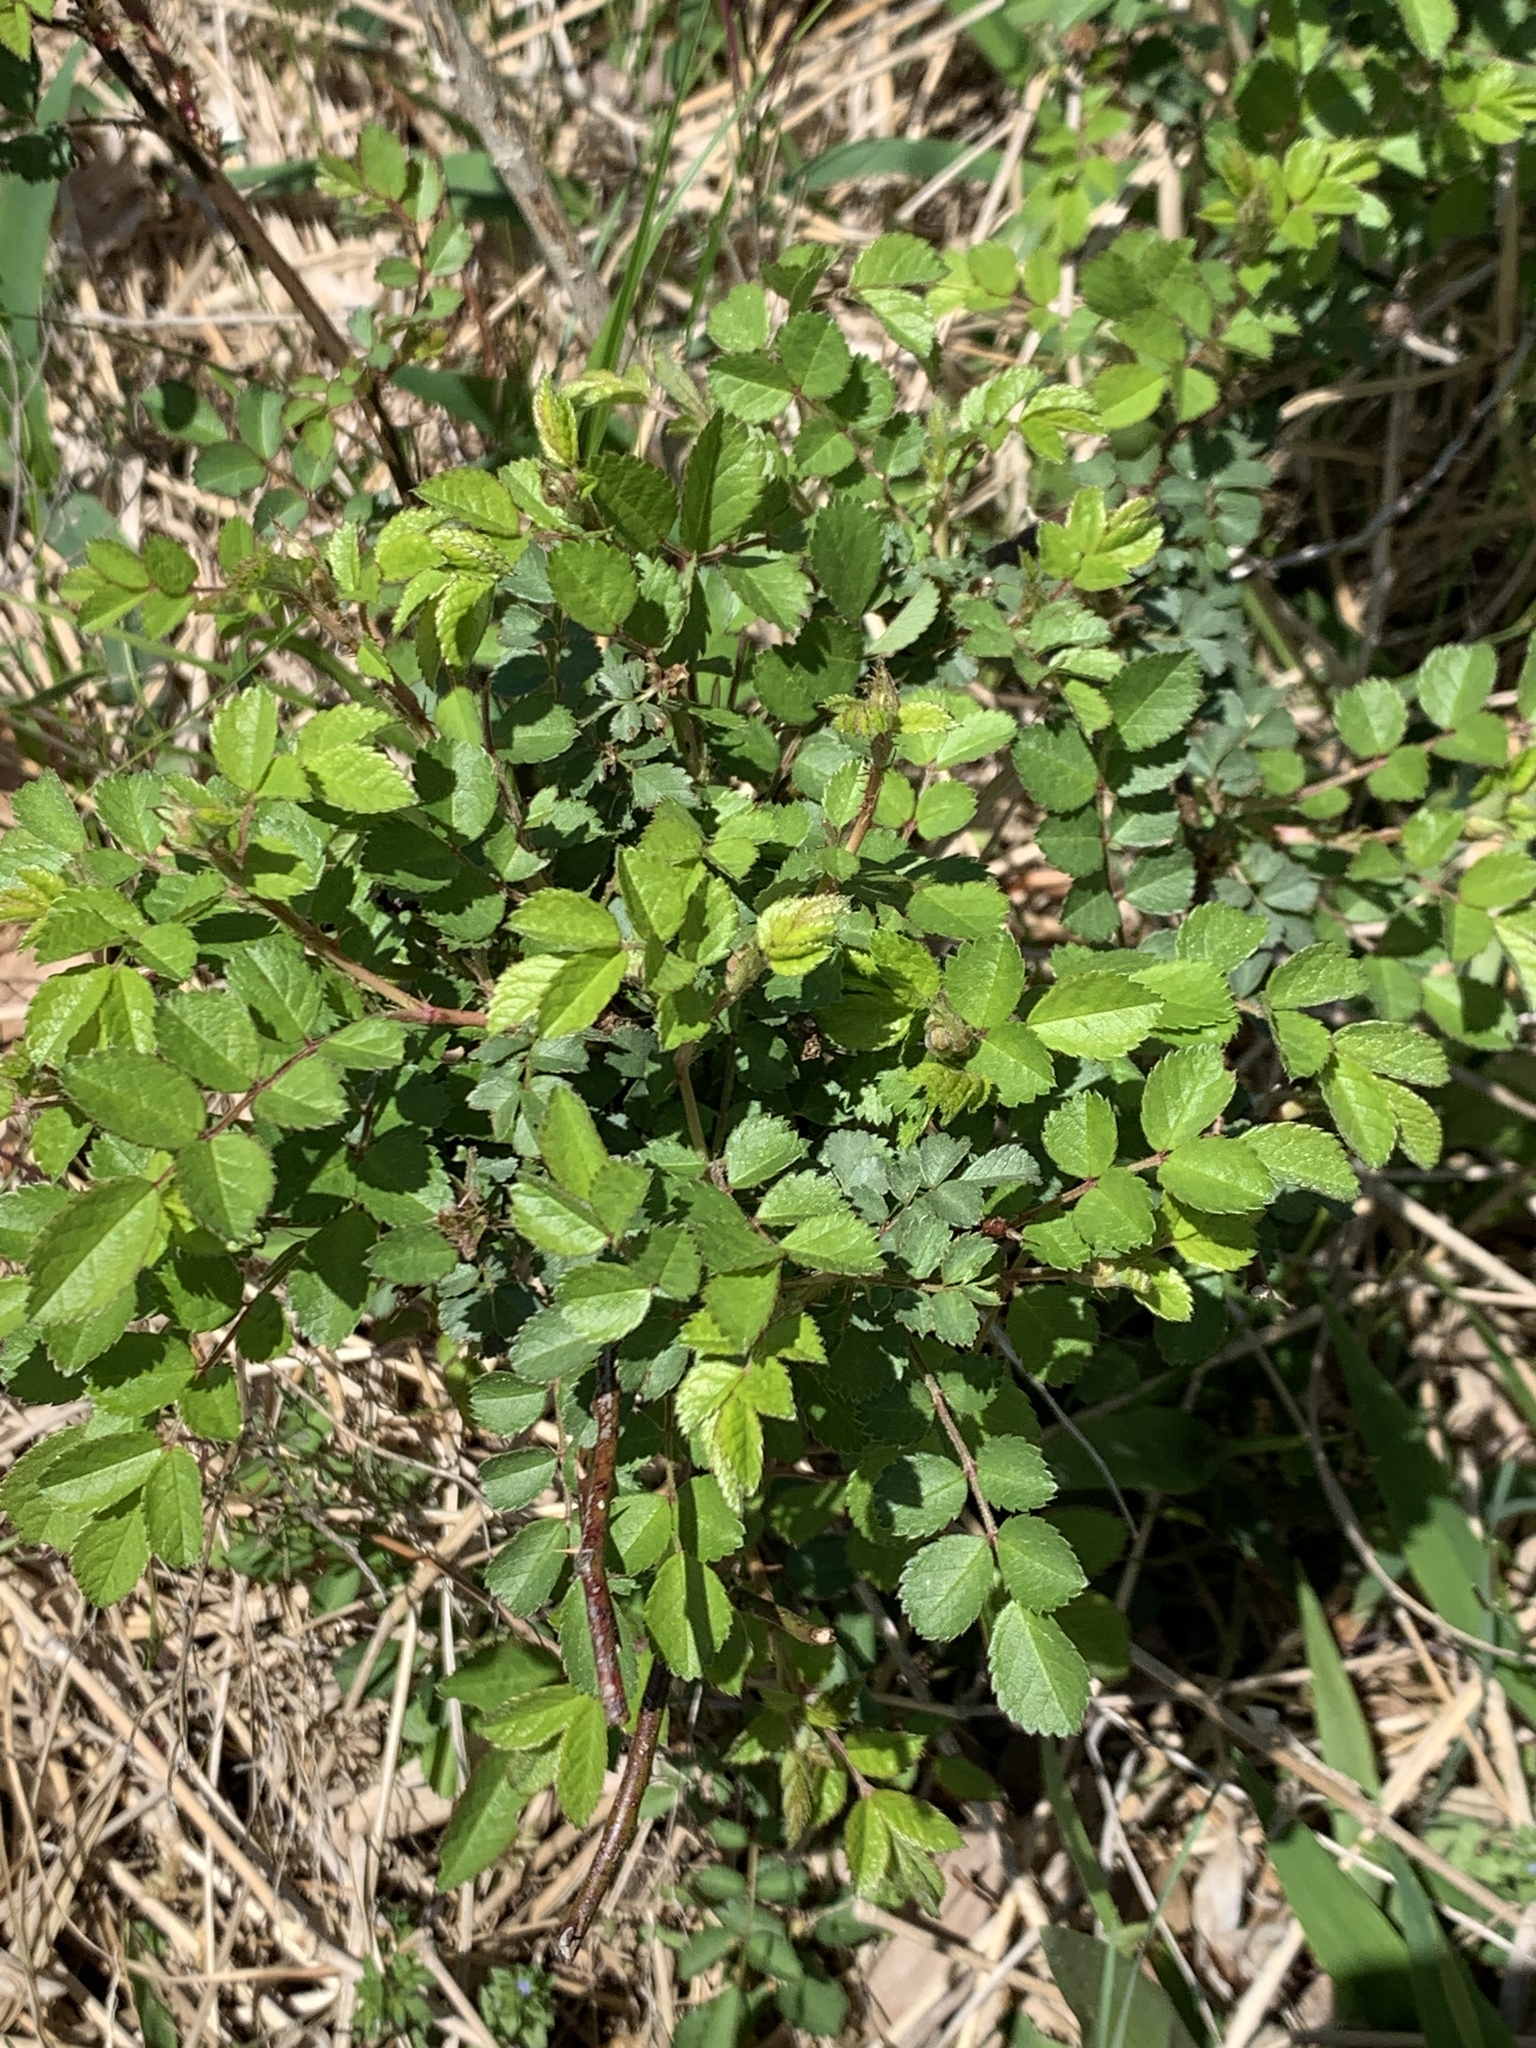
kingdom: Plantae
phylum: Tracheophyta
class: Magnoliopsida
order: Rosales
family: Rosaceae
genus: Rosa
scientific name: Rosa multiflora
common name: Multiflora rose
